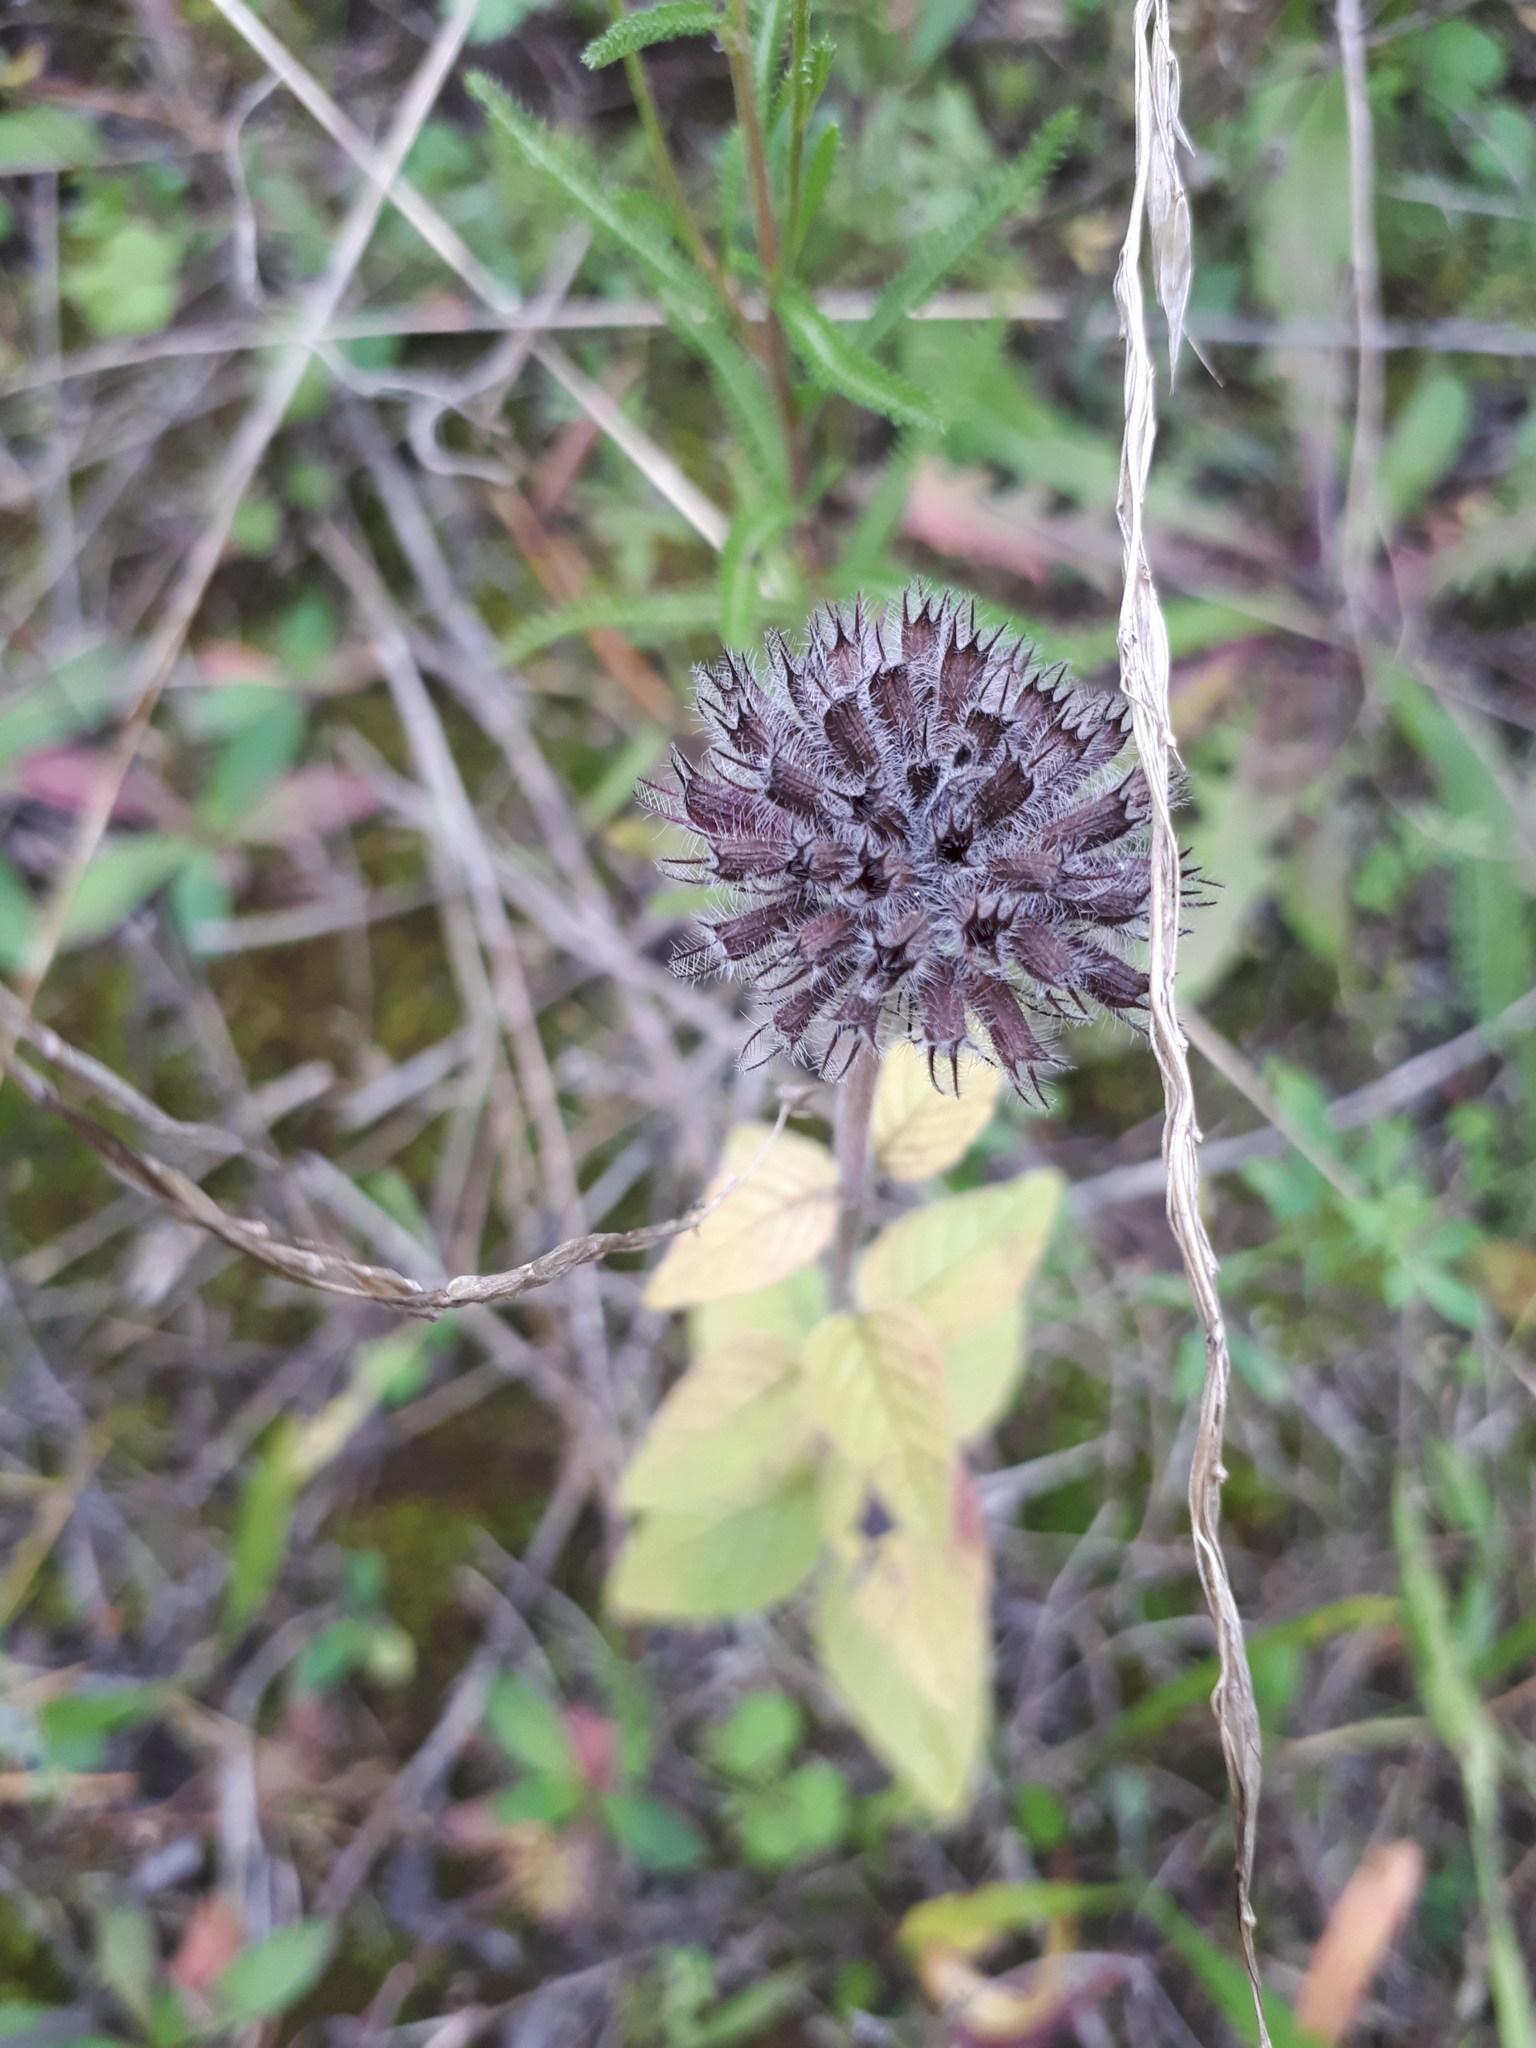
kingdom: Plantae
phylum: Tracheophyta
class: Magnoliopsida
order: Lamiales
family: Lamiaceae
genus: Clinopodium
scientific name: Clinopodium vulgare
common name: Wild basil
